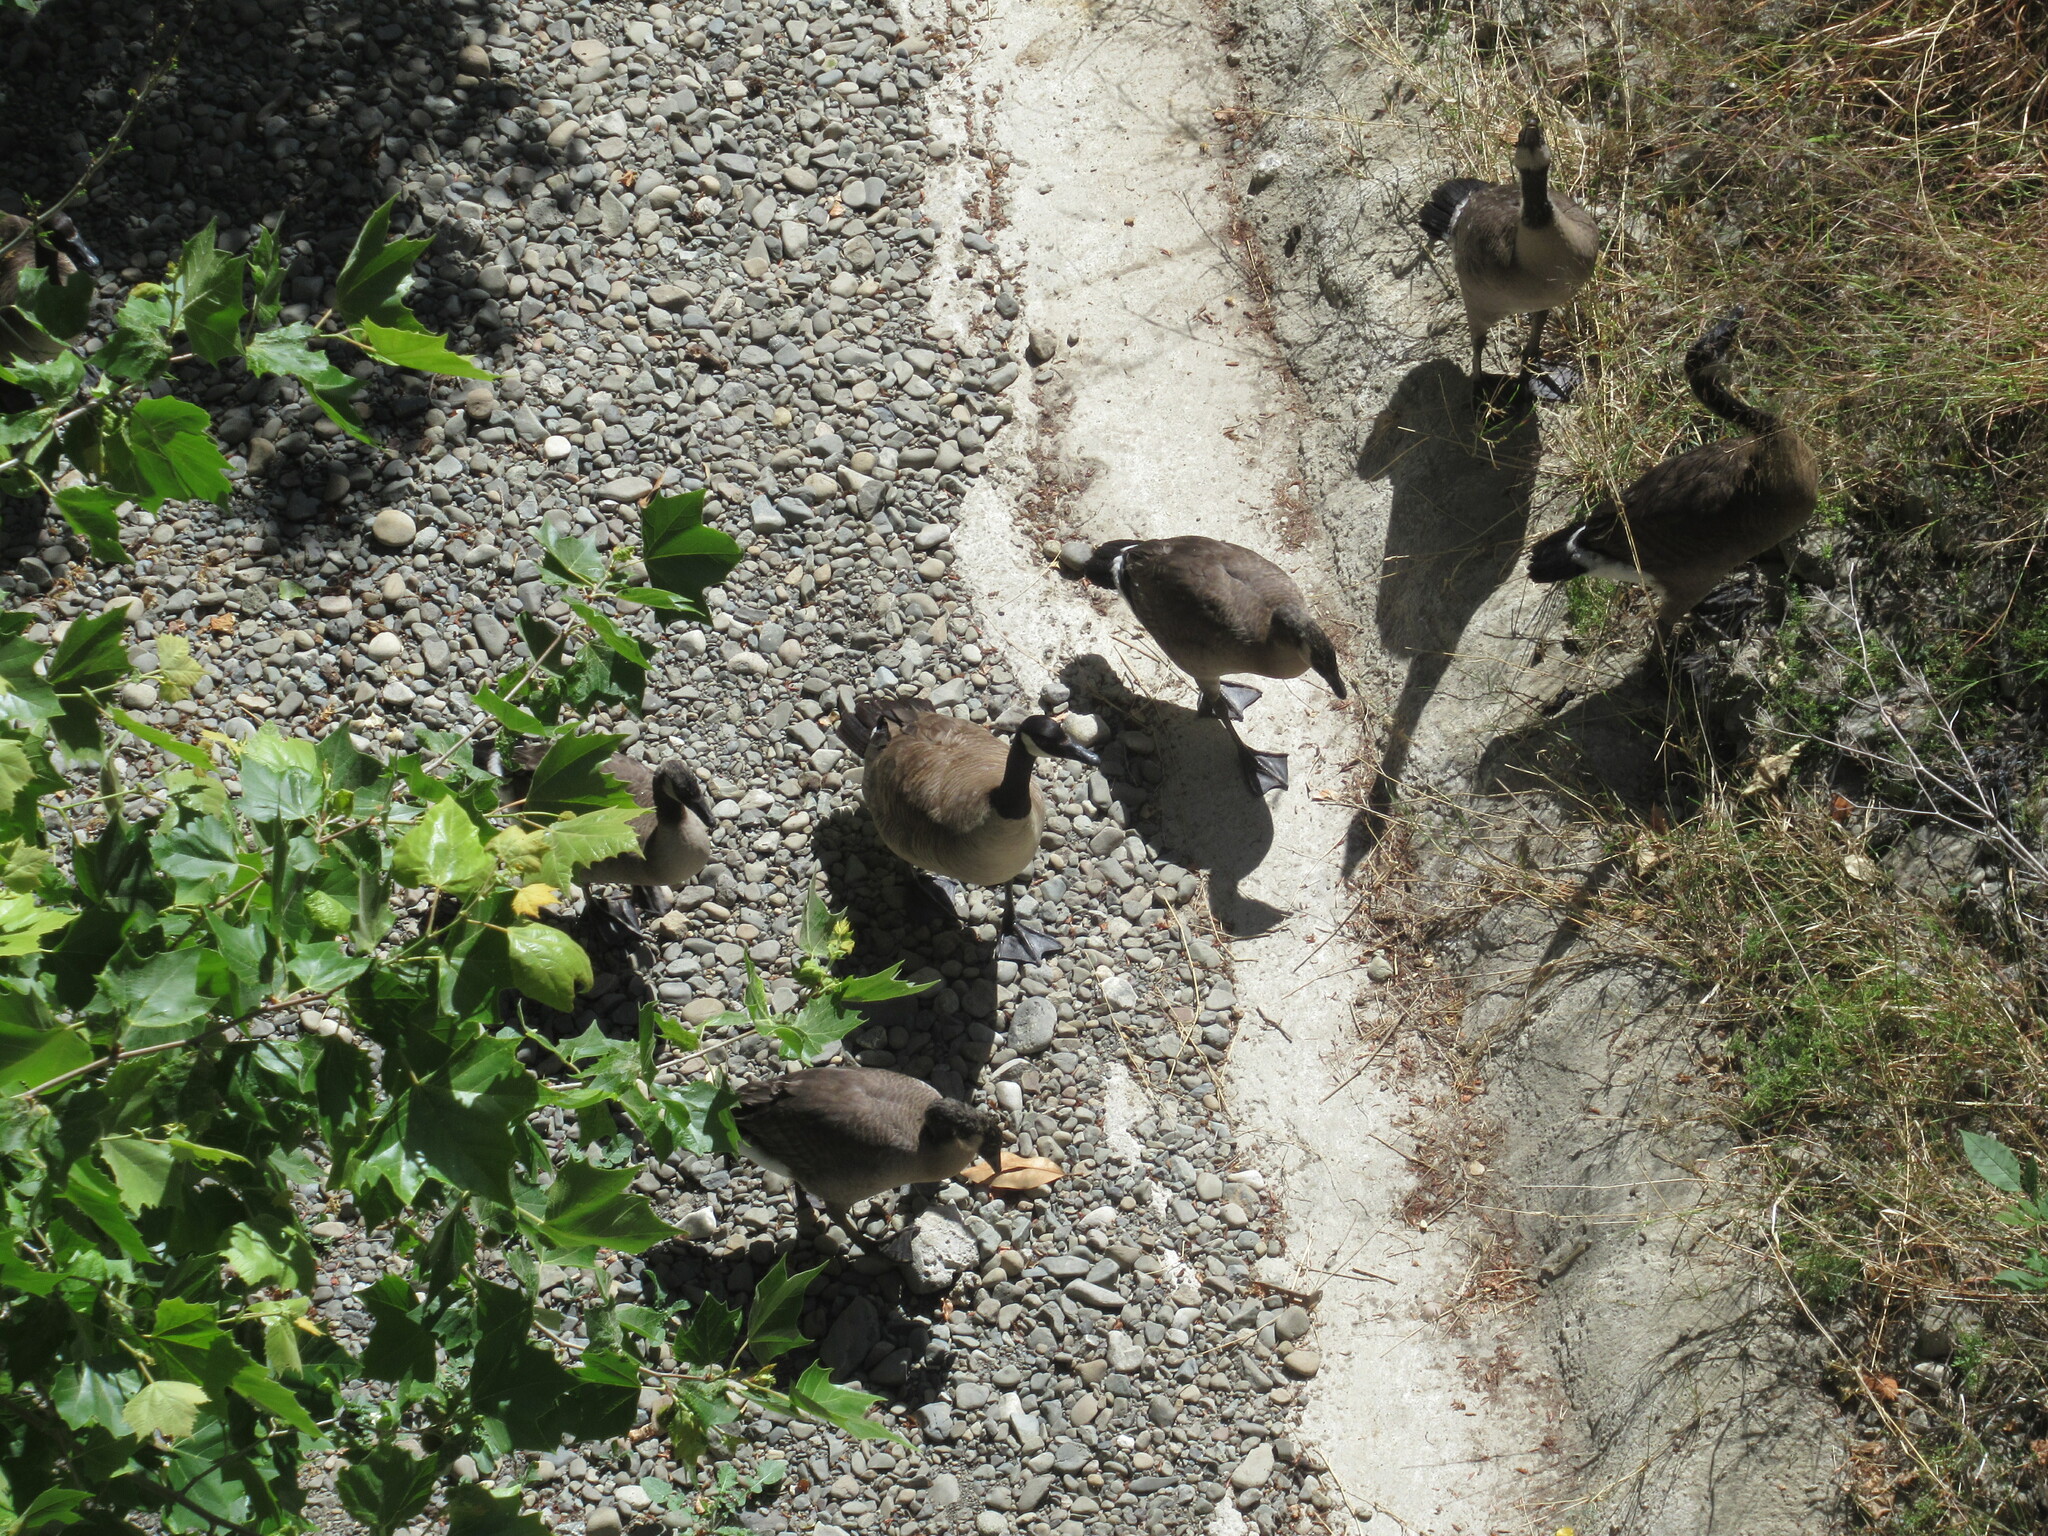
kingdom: Animalia
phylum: Chordata
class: Aves
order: Anseriformes
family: Anatidae
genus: Branta
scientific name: Branta canadensis
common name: Canada goose
